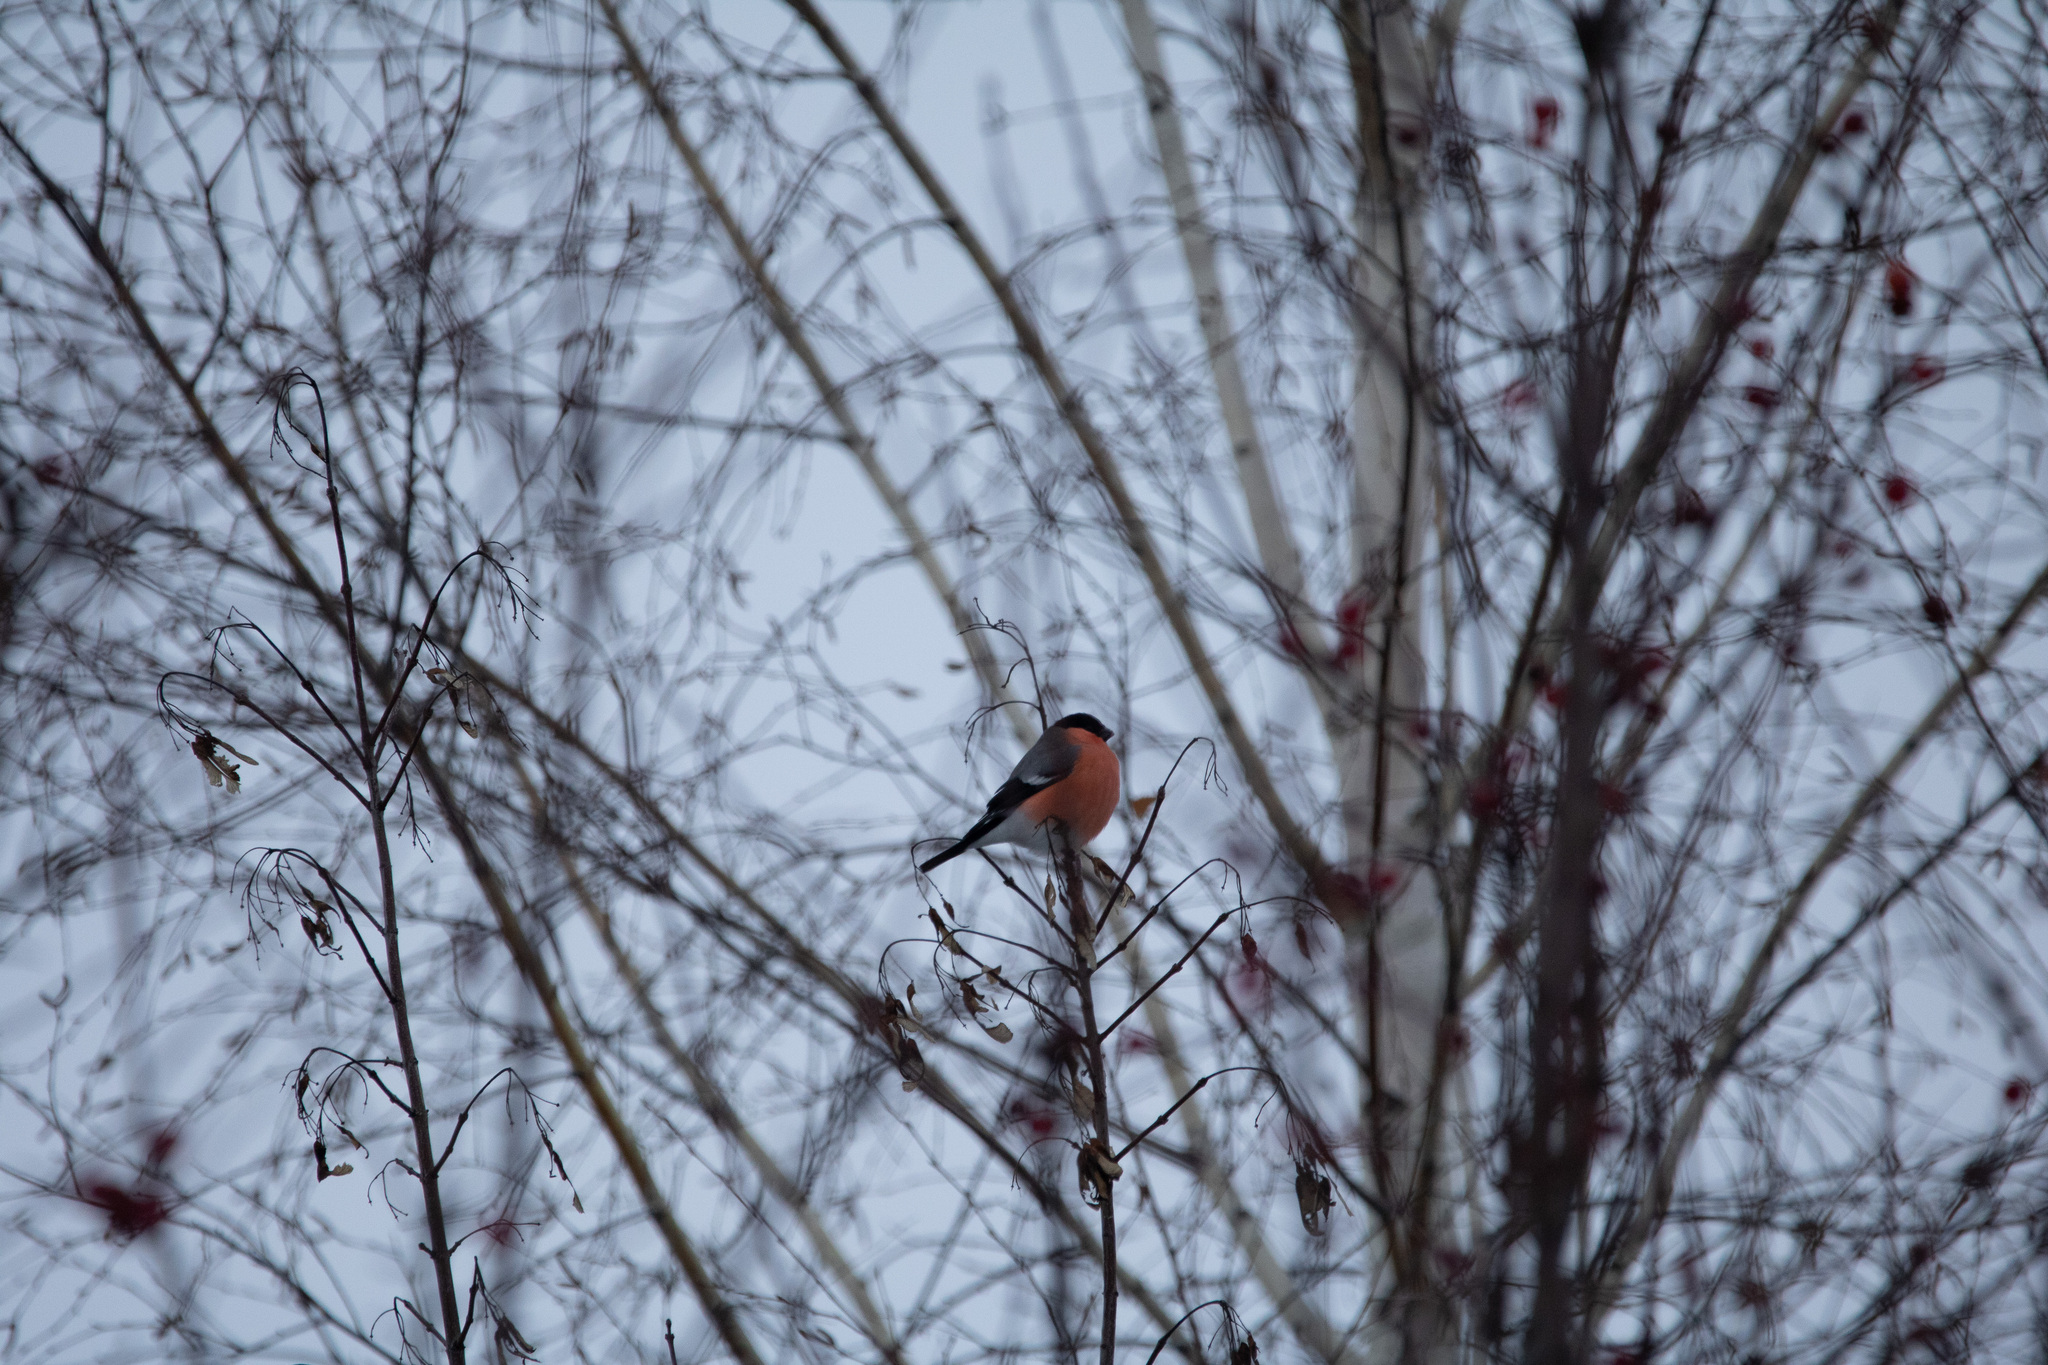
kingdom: Animalia
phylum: Chordata
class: Aves
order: Passeriformes
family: Fringillidae
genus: Pyrrhula
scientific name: Pyrrhula pyrrhula
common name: Eurasian bullfinch
